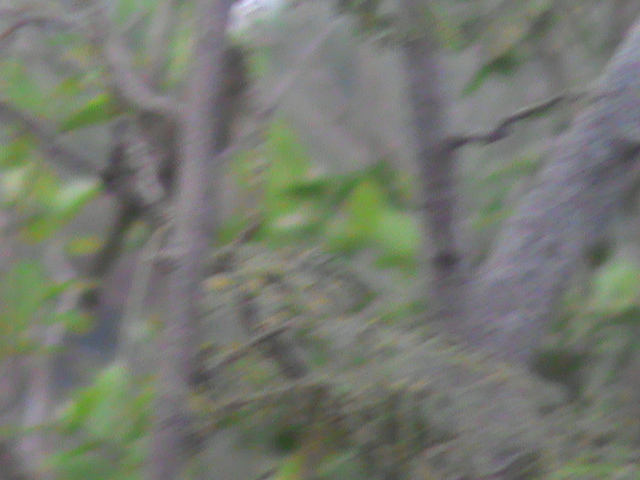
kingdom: Animalia
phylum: Chordata
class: Aves
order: Cuculiformes
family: Cuculidae
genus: Rhopodytes
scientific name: Rhopodytes viridirostris
